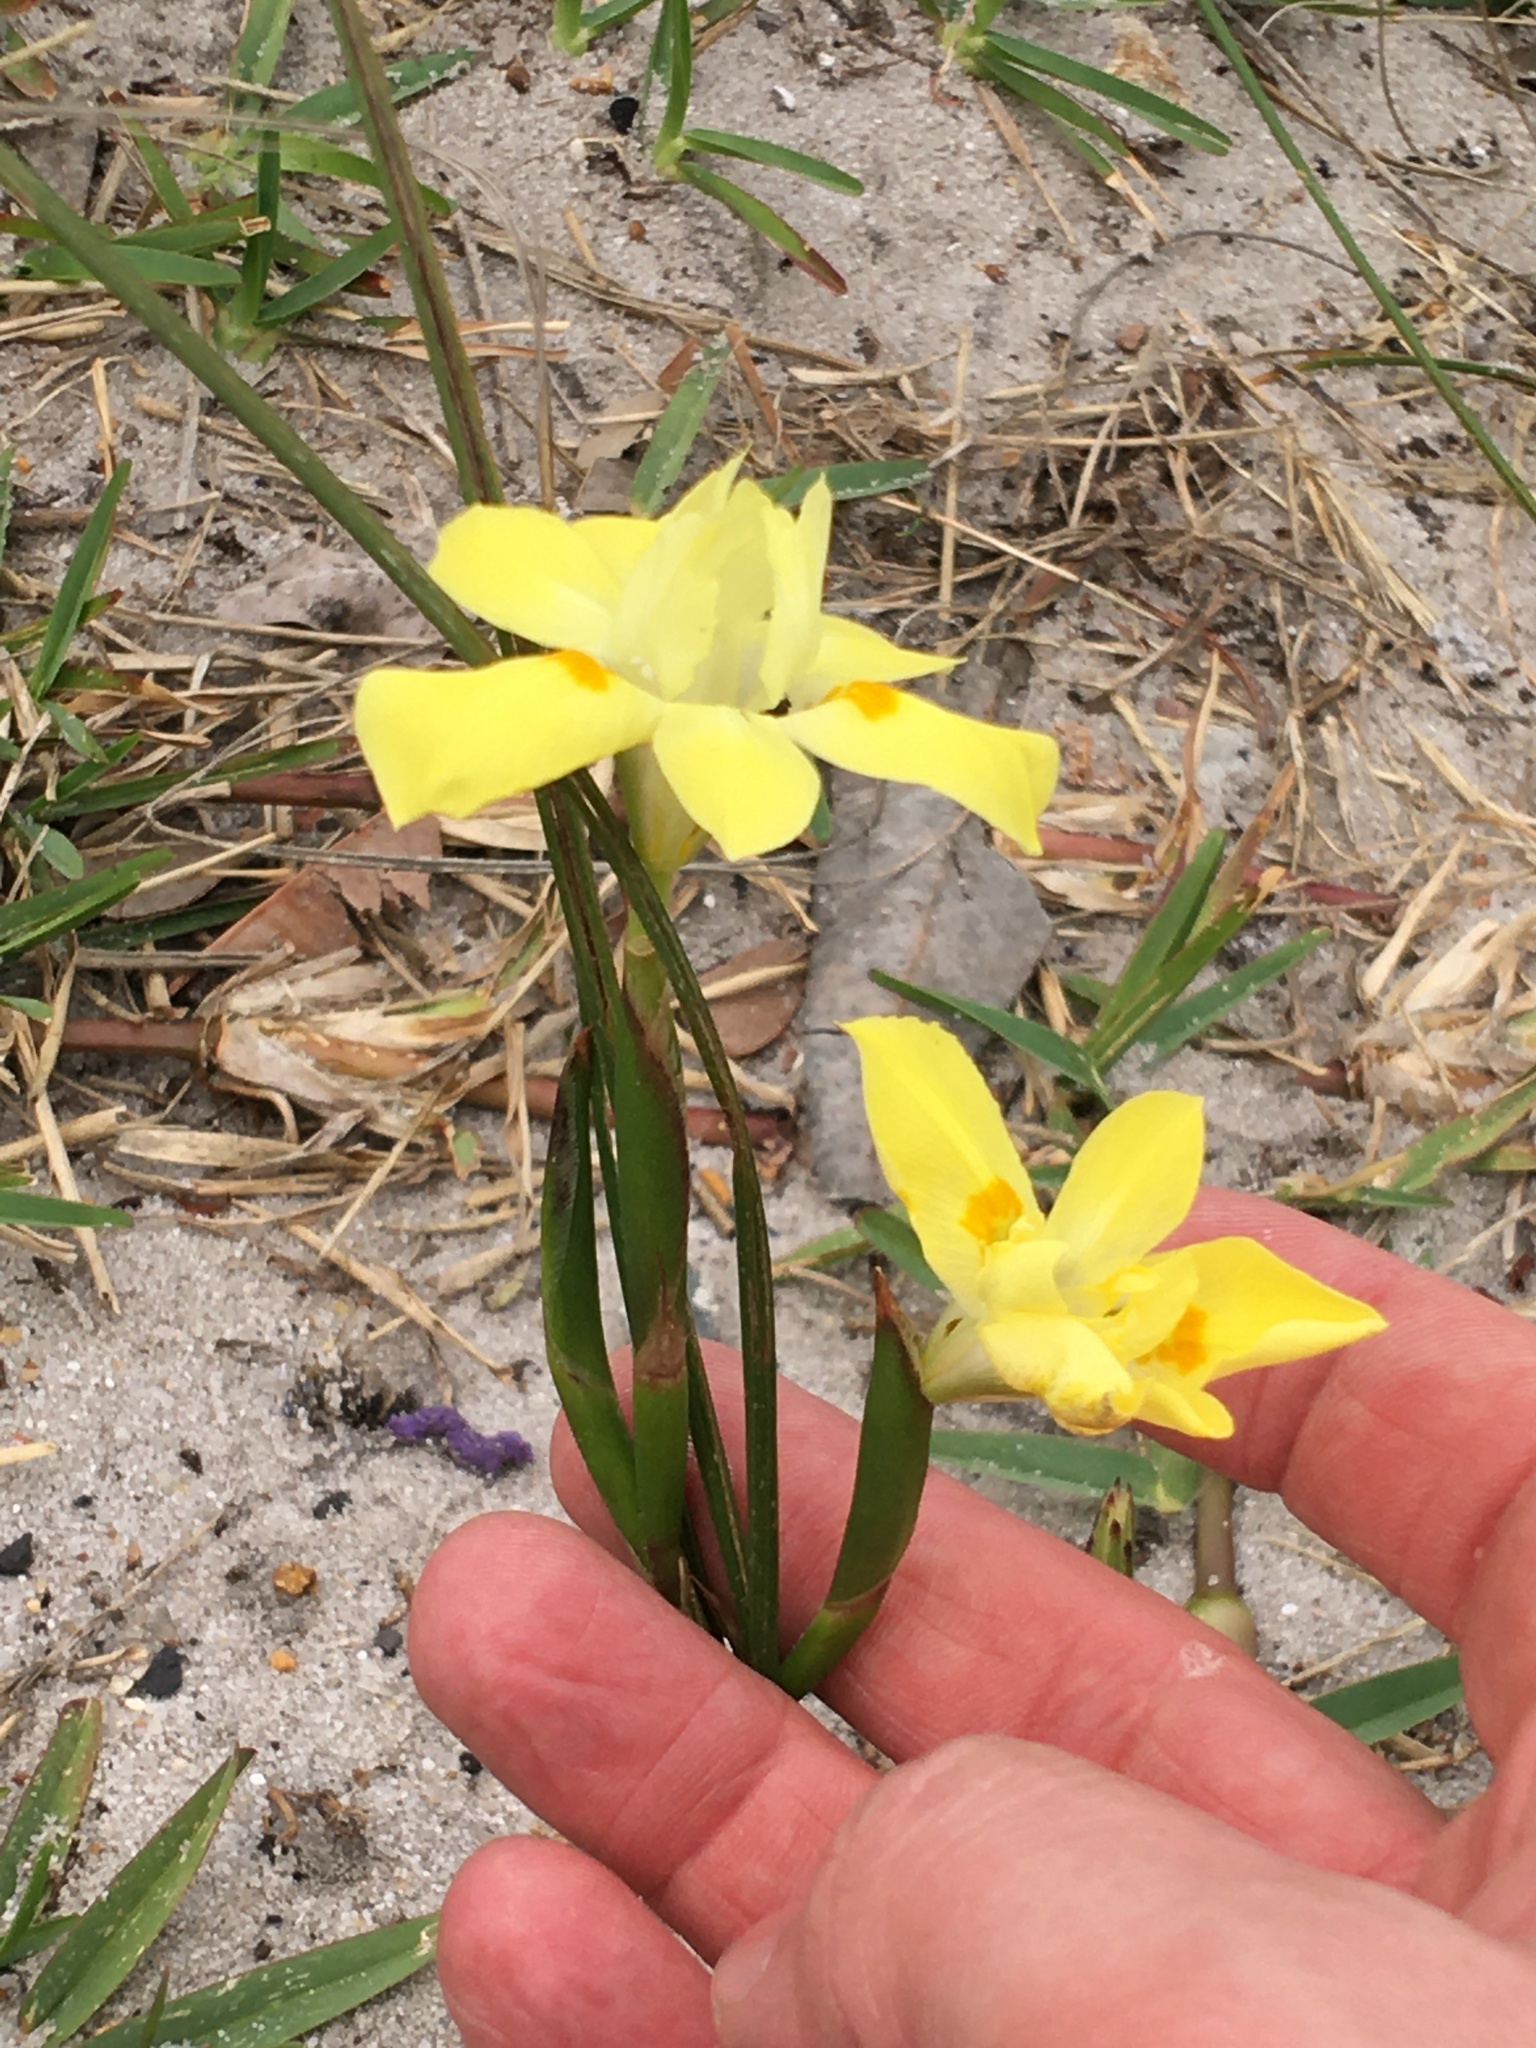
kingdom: Plantae
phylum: Tracheophyta
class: Liliopsida
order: Asparagales
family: Iridaceae
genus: Moraea
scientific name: Moraea fugax
